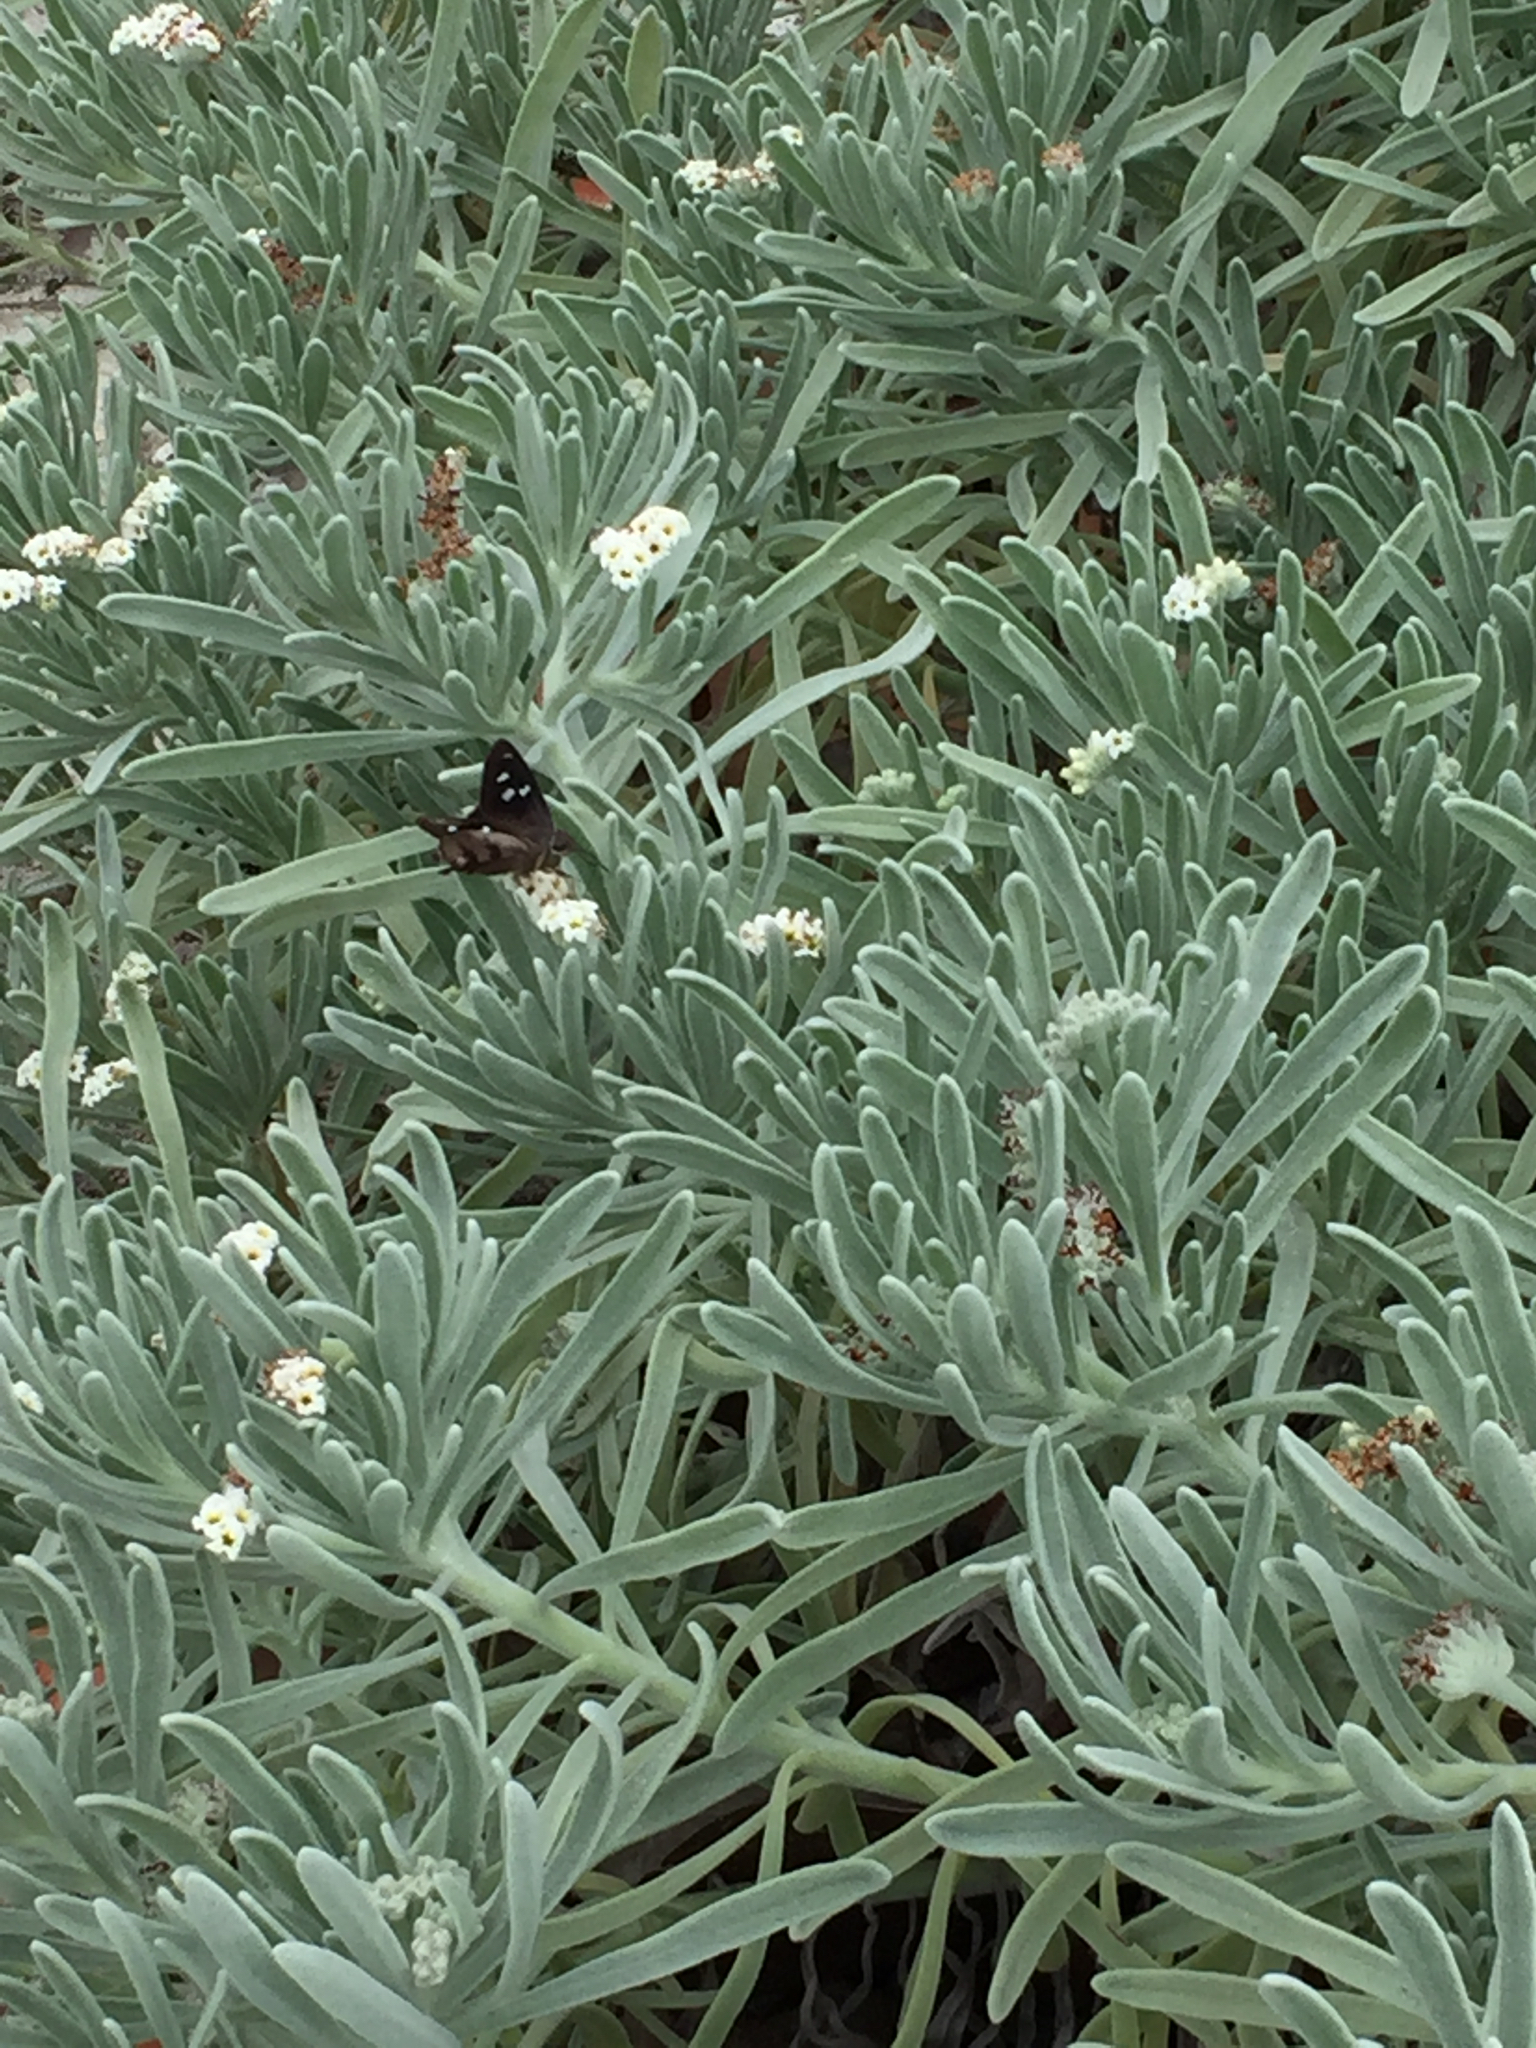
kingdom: Animalia
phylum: Arthropoda
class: Insecta
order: Lepidoptera
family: Hesperiidae
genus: Polygonus
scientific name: Polygonus leo
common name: Hammoch skipper
